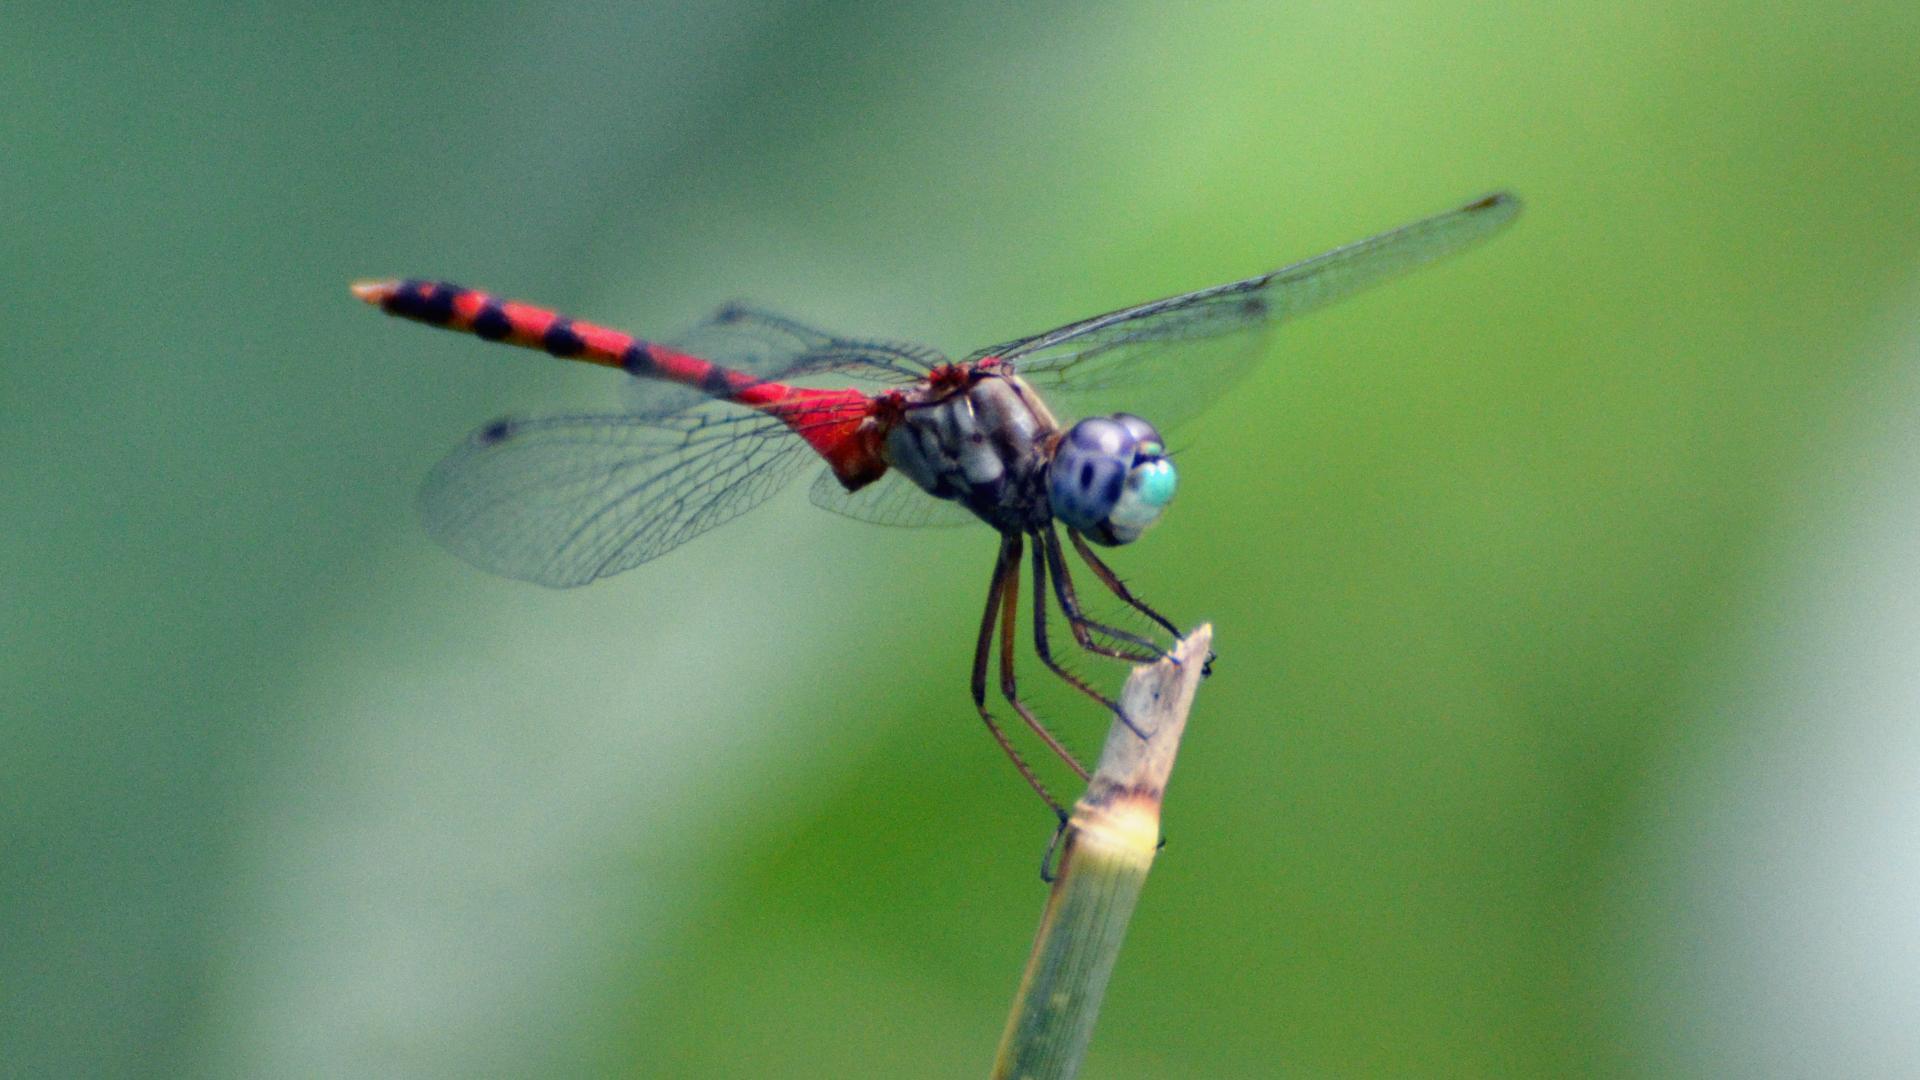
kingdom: Animalia
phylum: Arthropoda
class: Insecta
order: Odonata
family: Libellulidae
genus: Sympetrum
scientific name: Sympetrum ambiguum
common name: Blue-faced meadowhawk
